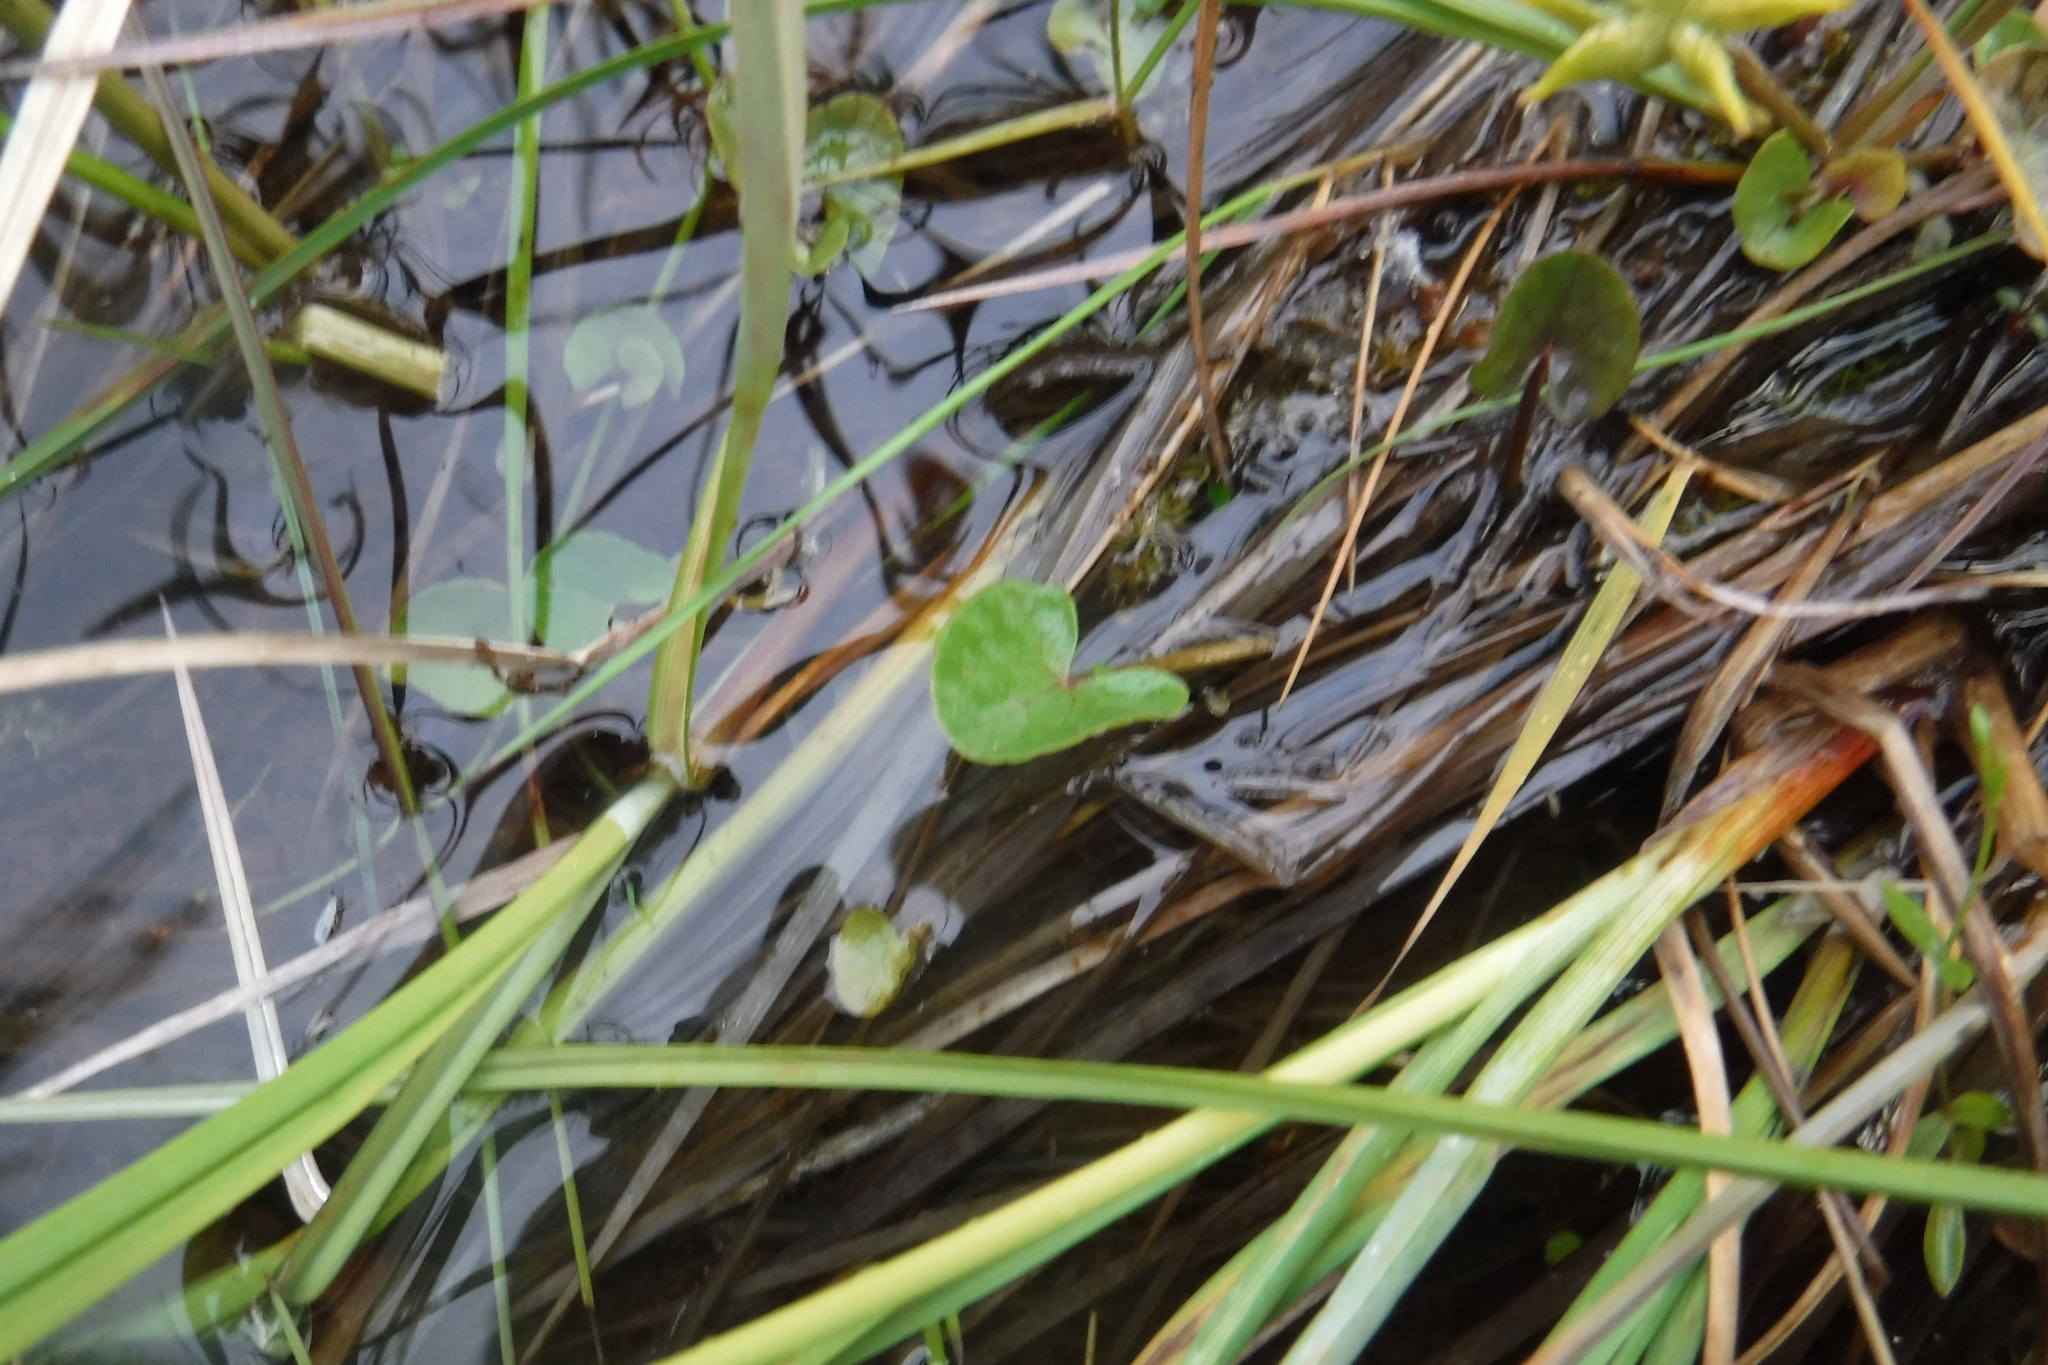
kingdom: Plantae
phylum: Tracheophyta
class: Magnoliopsida
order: Ranunculales
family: Ranunculaceae
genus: Caltha
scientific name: Caltha palustris
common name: Marsh marigold
